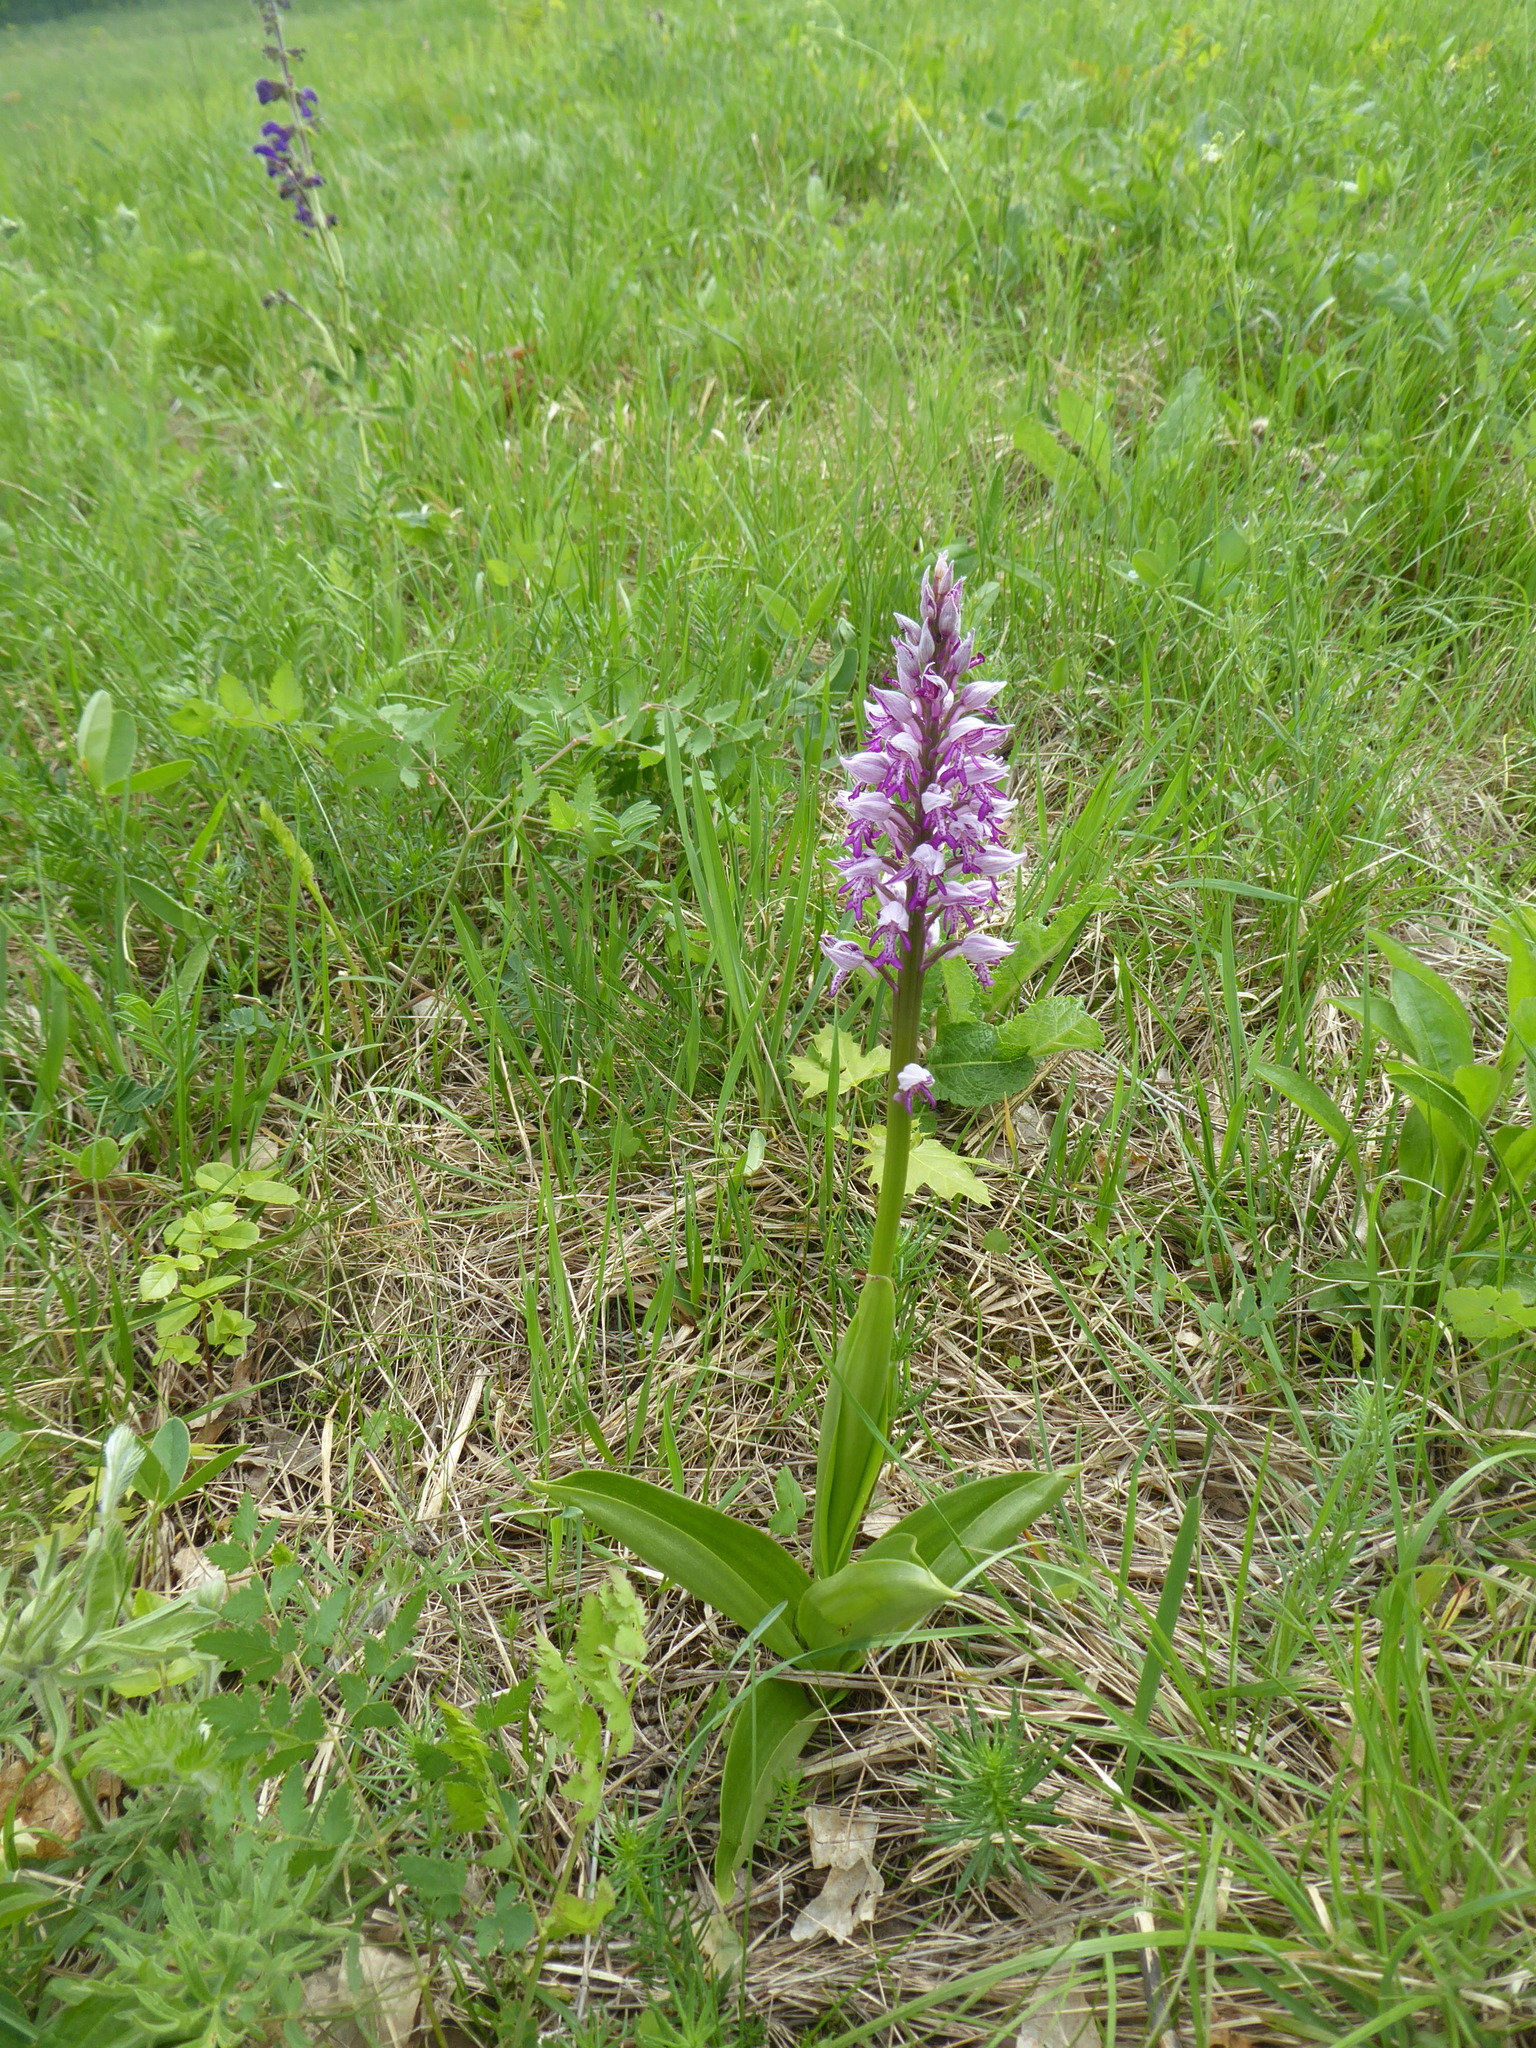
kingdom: Plantae
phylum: Tracheophyta
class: Liliopsida
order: Asparagales
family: Orchidaceae
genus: Orchis
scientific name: Orchis militaris
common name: Military orchid
